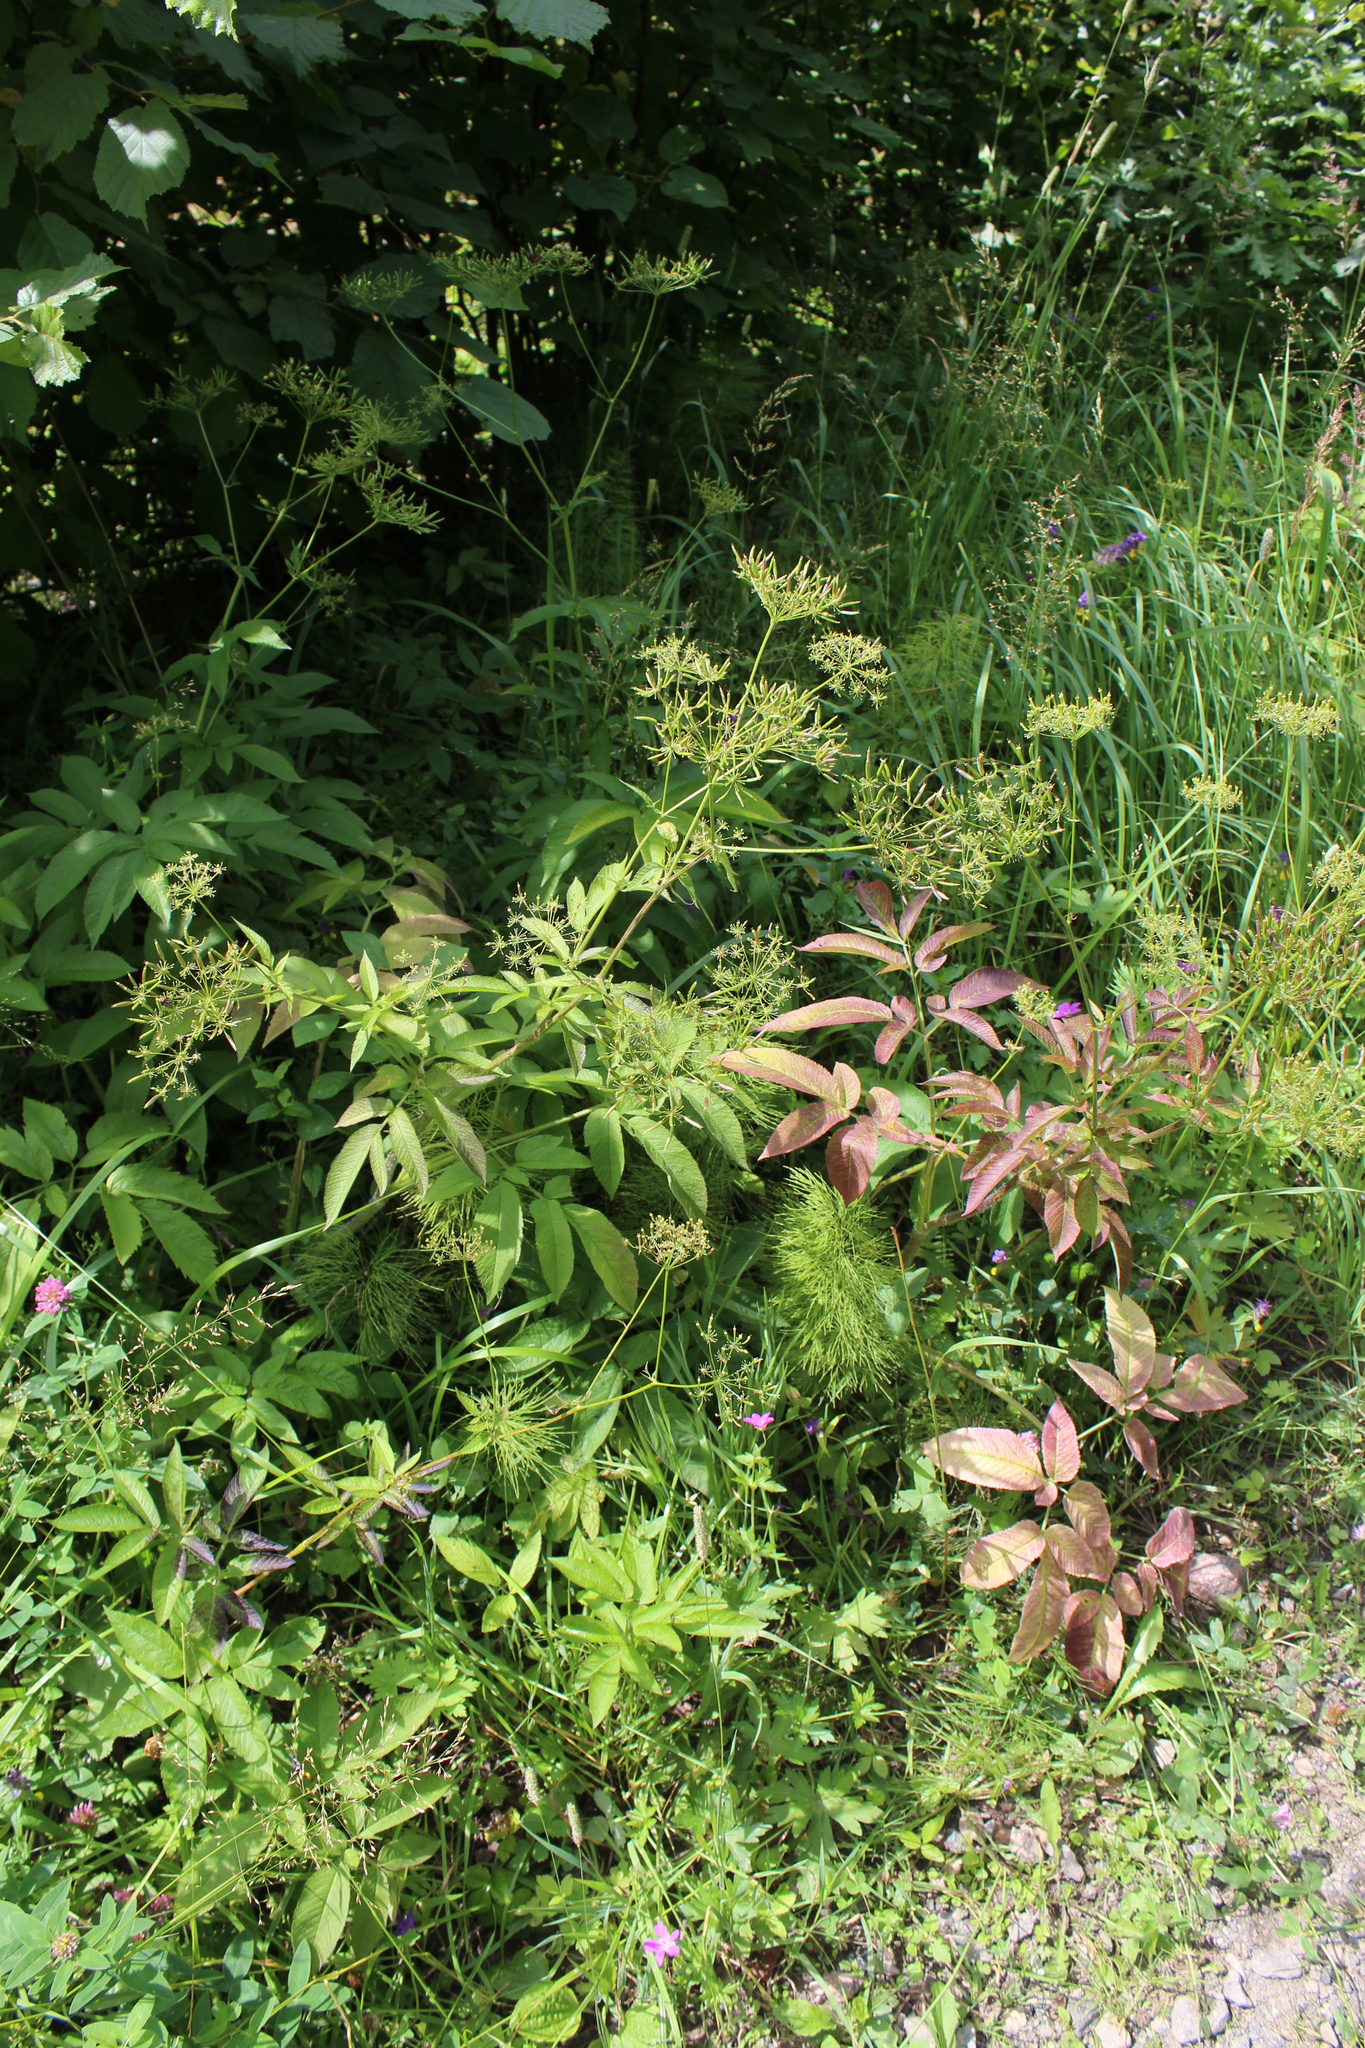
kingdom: Plantae
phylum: Tracheophyta
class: Magnoliopsida
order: Apiales
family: Apiaceae
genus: Chaerophyllum
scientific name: Chaerophyllum aromaticum
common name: Broadleaf chervil
